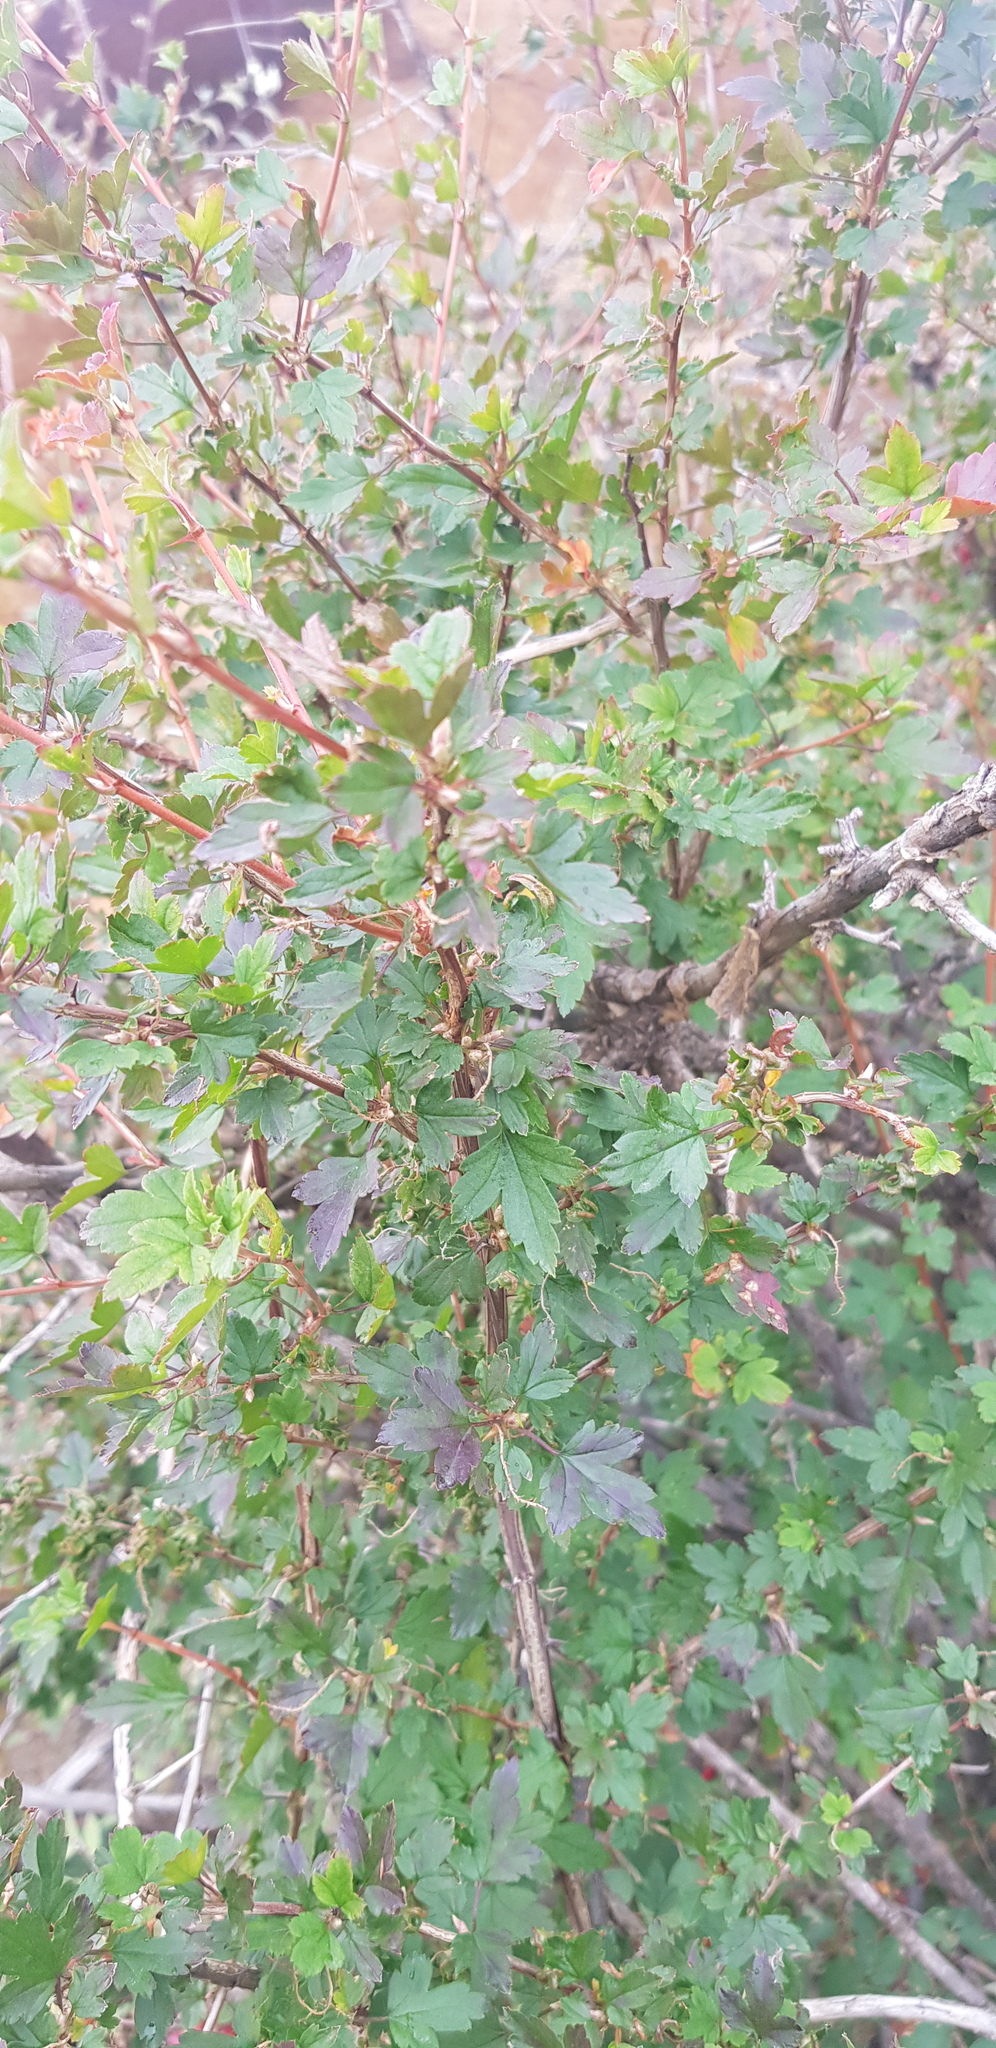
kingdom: Plantae
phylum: Tracheophyta
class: Magnoliopsida
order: Saxifragales
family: Grossulariaceae
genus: Ribes
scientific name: Ribes diacanthum
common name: Siberian currant
